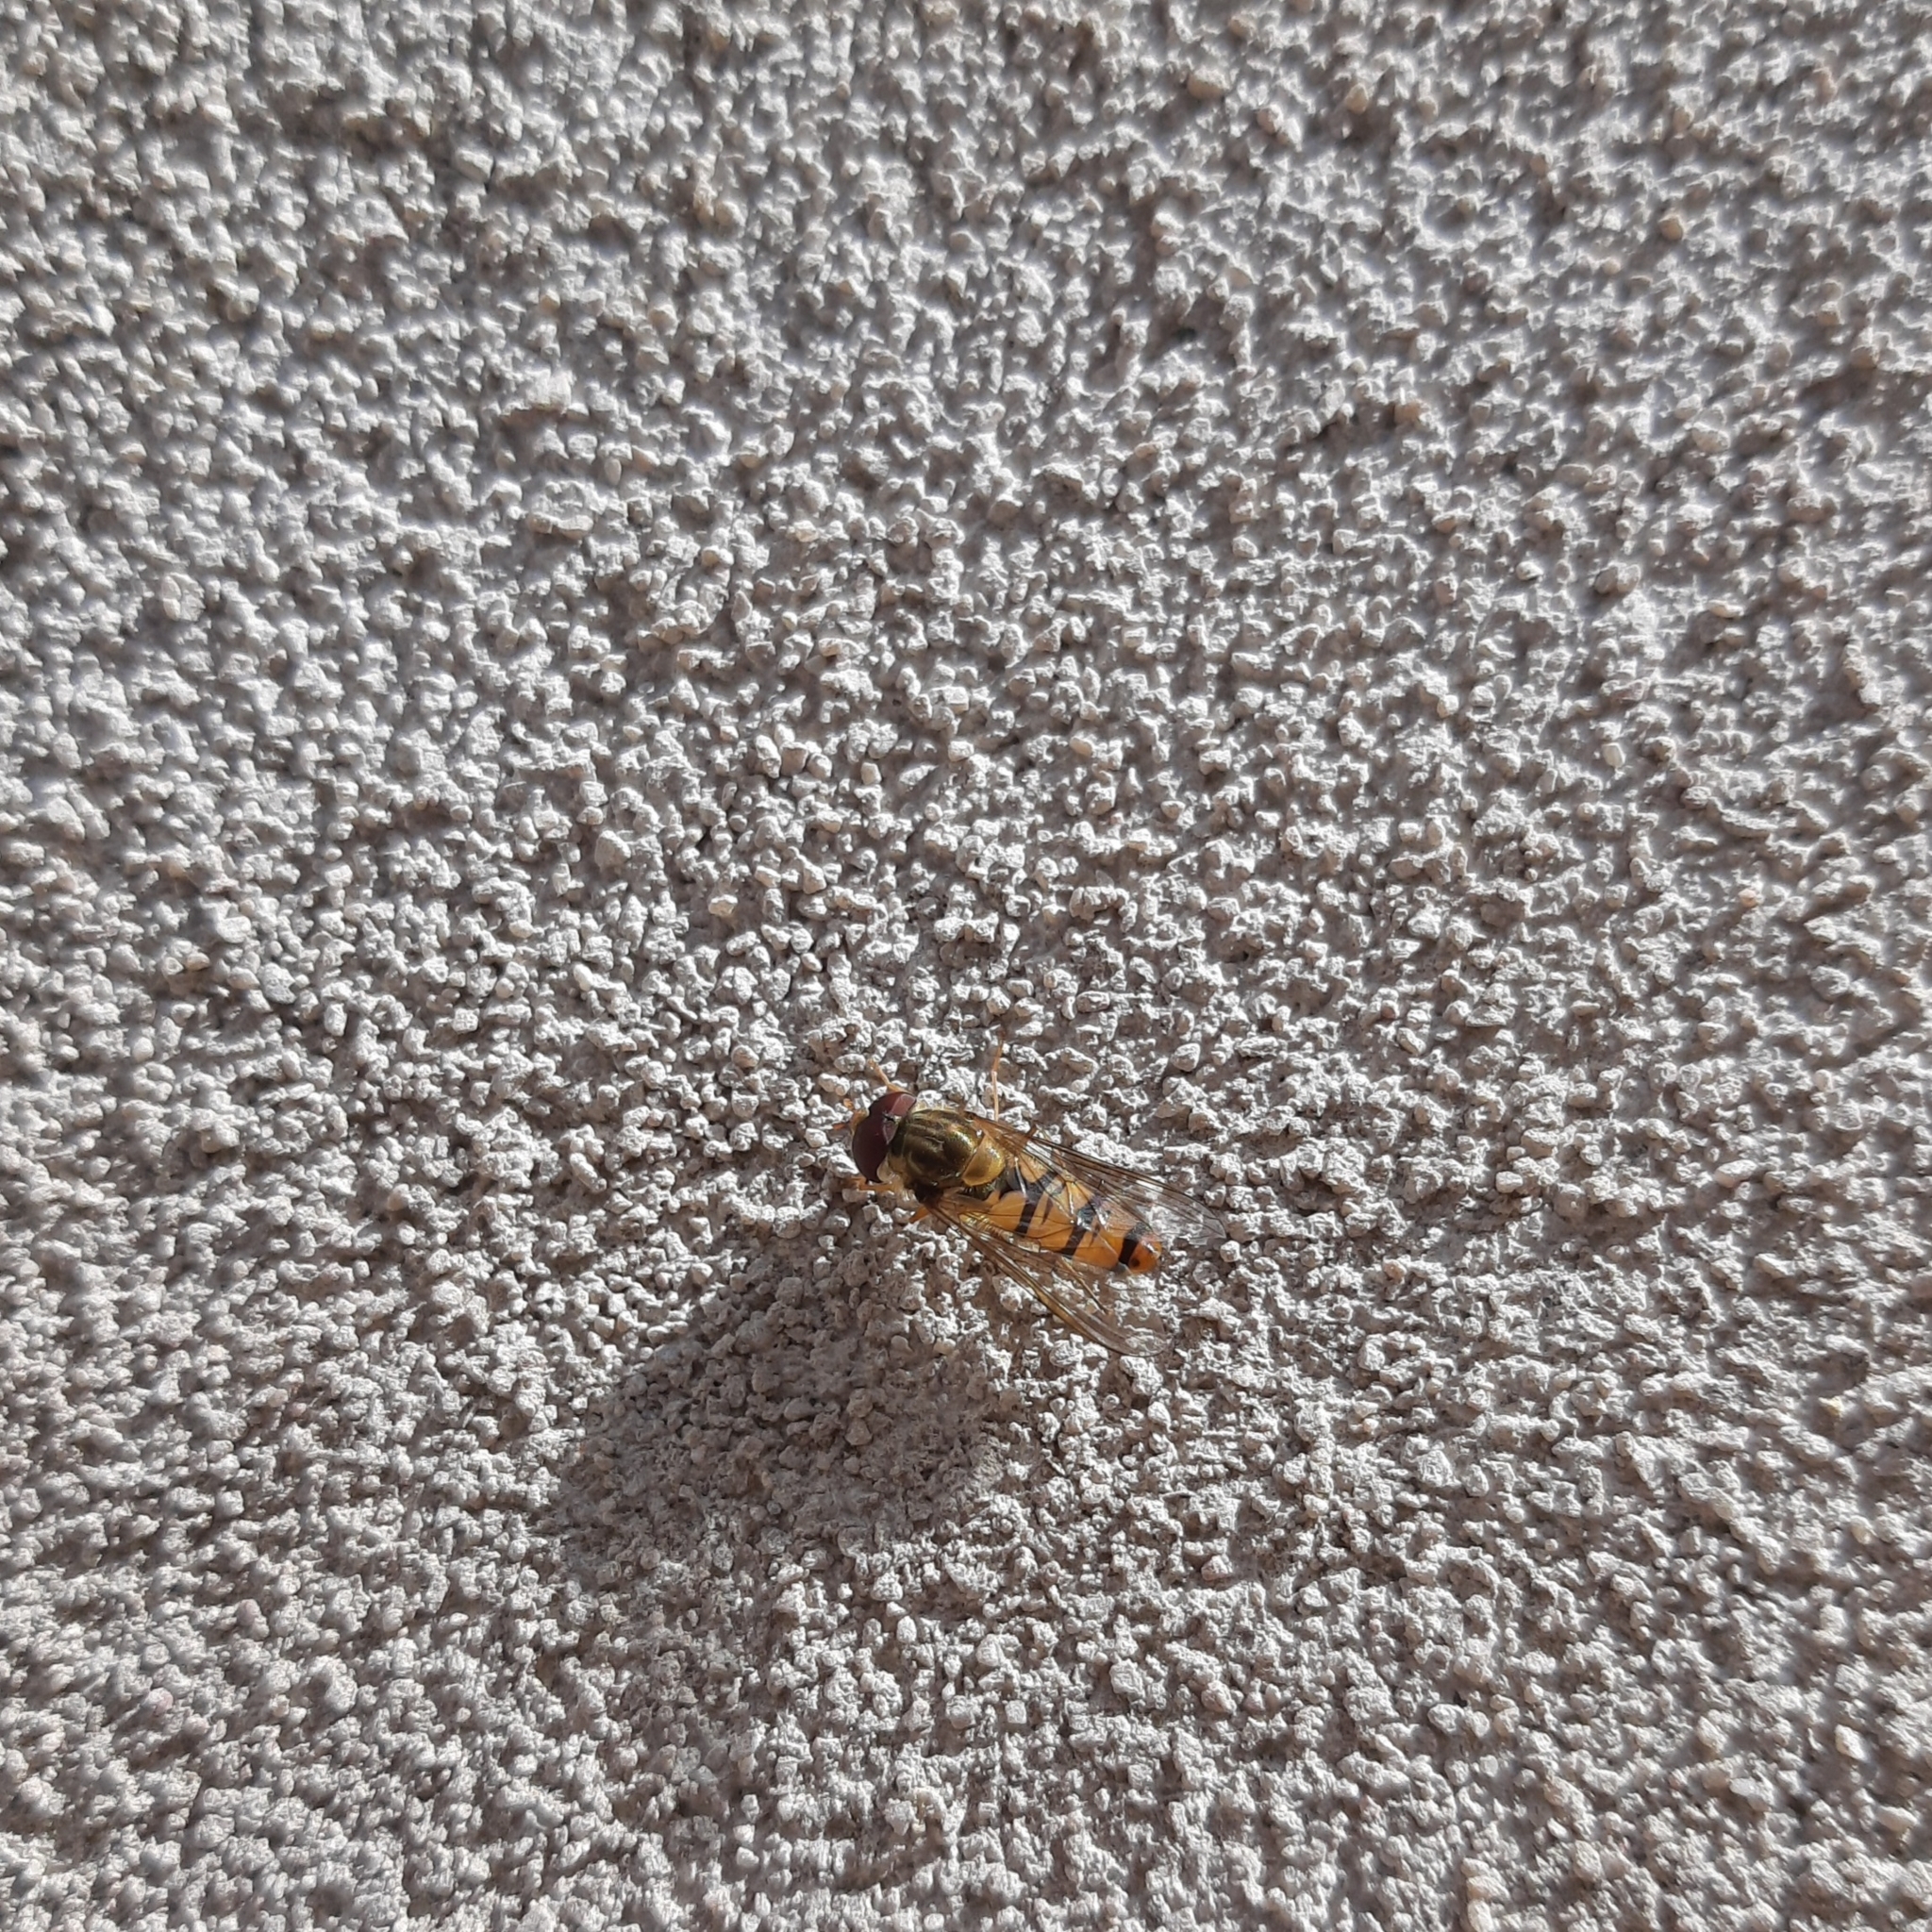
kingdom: Animalia
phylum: Arthropoda
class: Insecta
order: Diptera
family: Syrphidae
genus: Episyrphus
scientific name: Episyrphus balteatus
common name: Marmalade hoverfly
